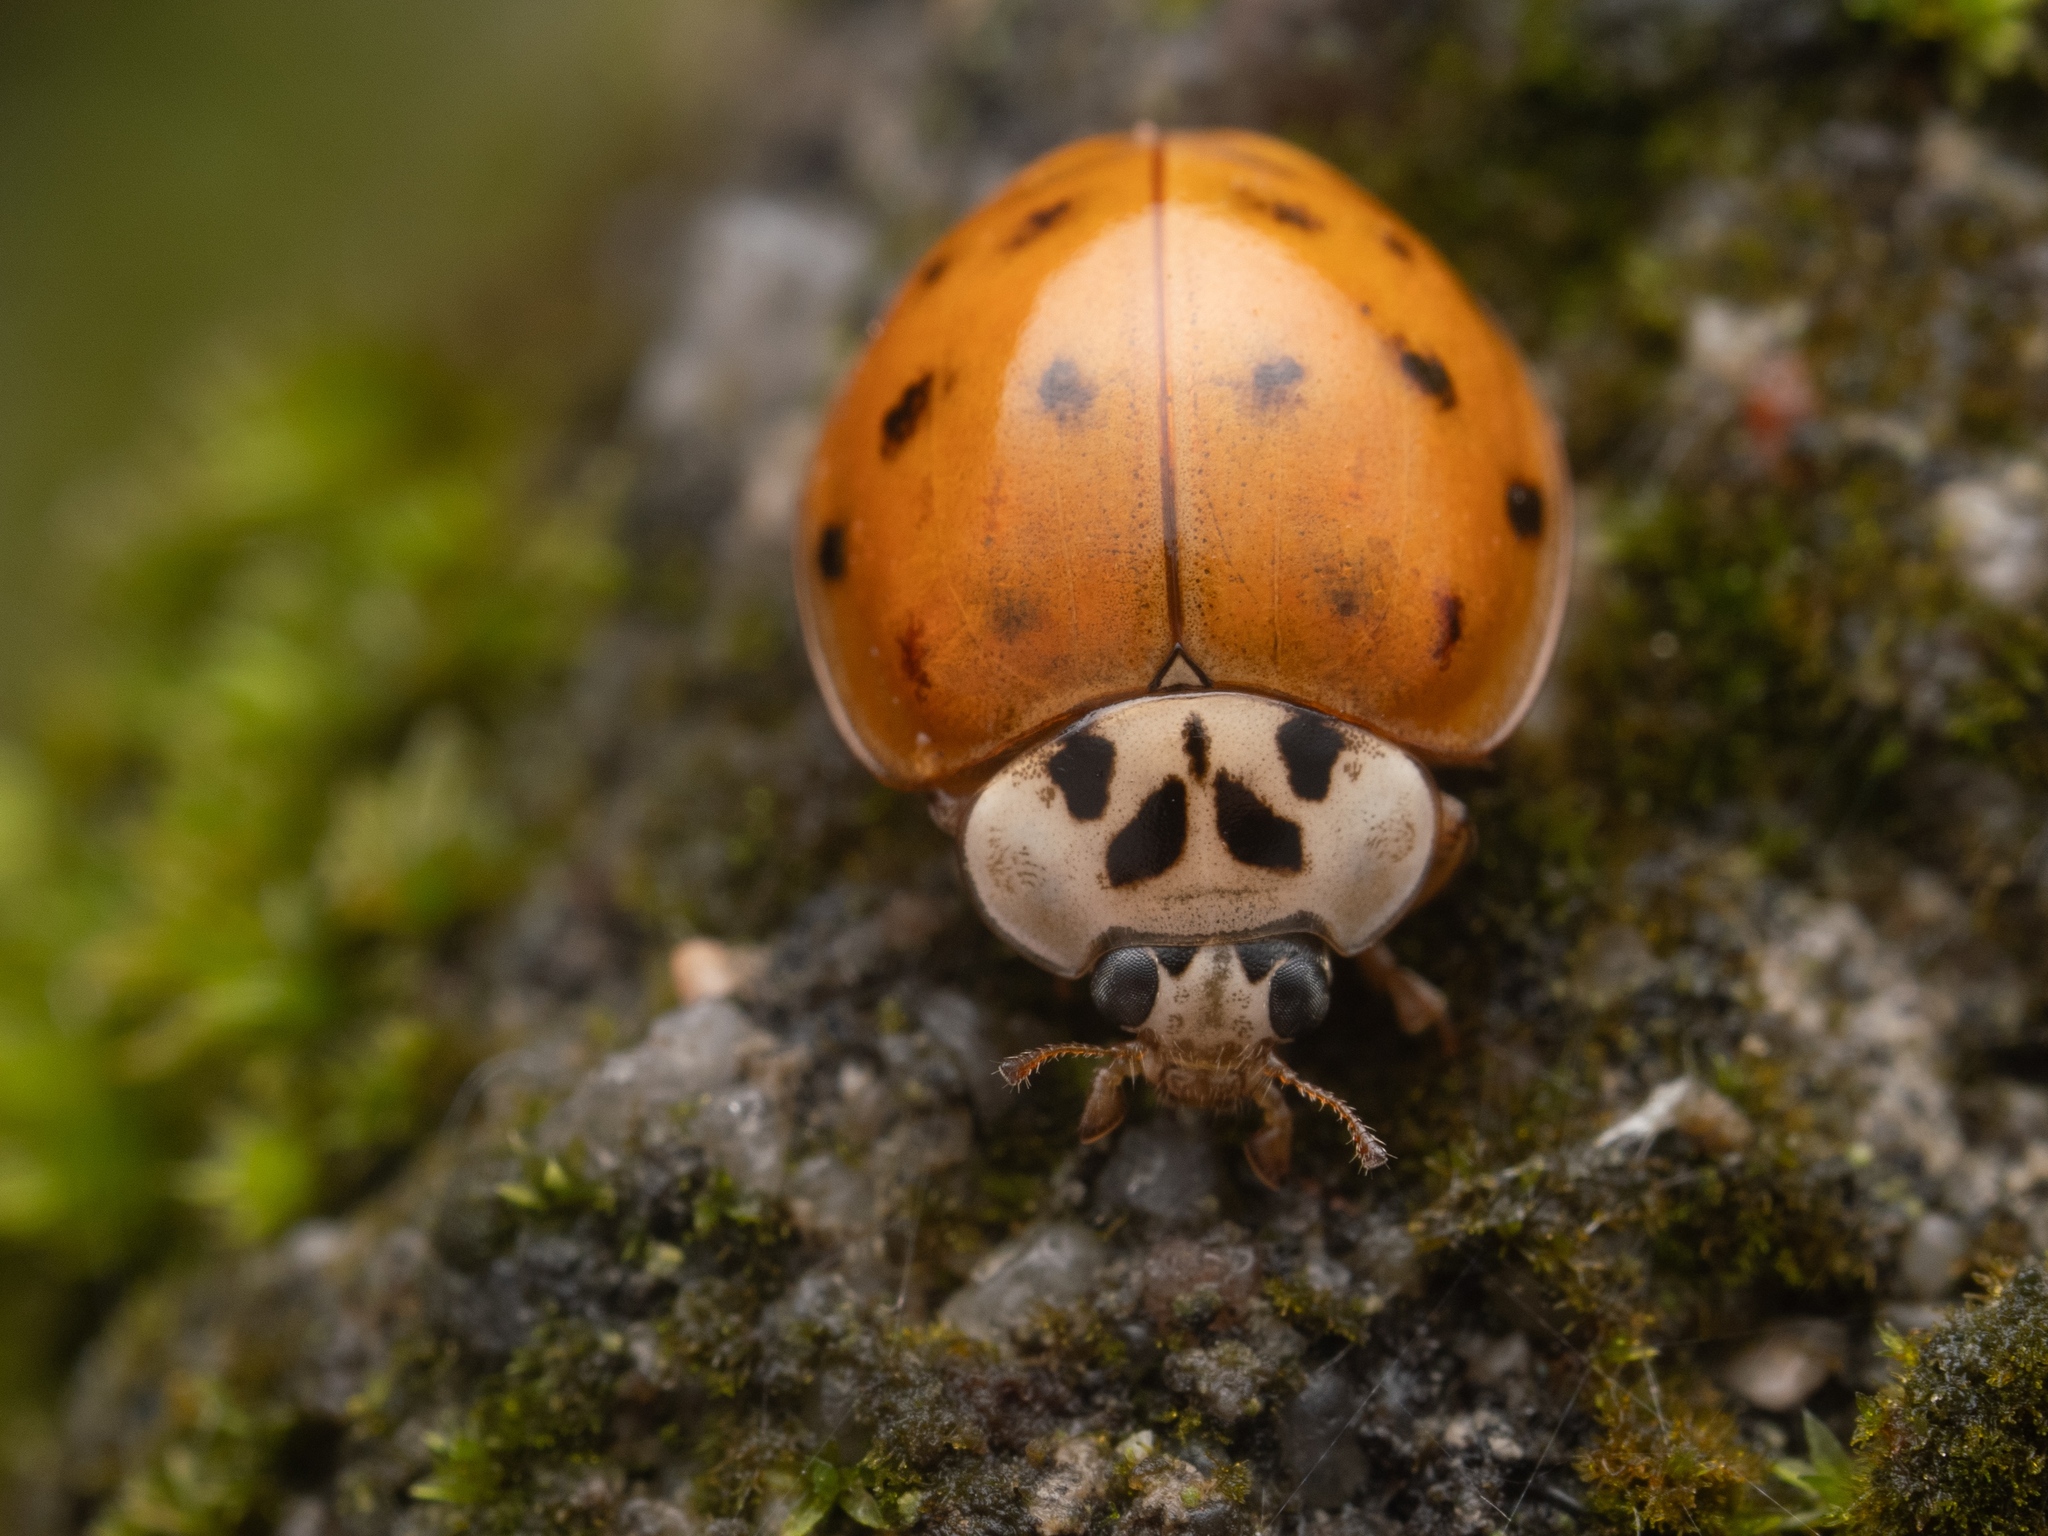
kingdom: Animalia
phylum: Arthropoda
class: Insecta
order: Coleoptera
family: Coccinellidae
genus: Harmonia
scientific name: Harmonia axyridis
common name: Harlequin ladybird
